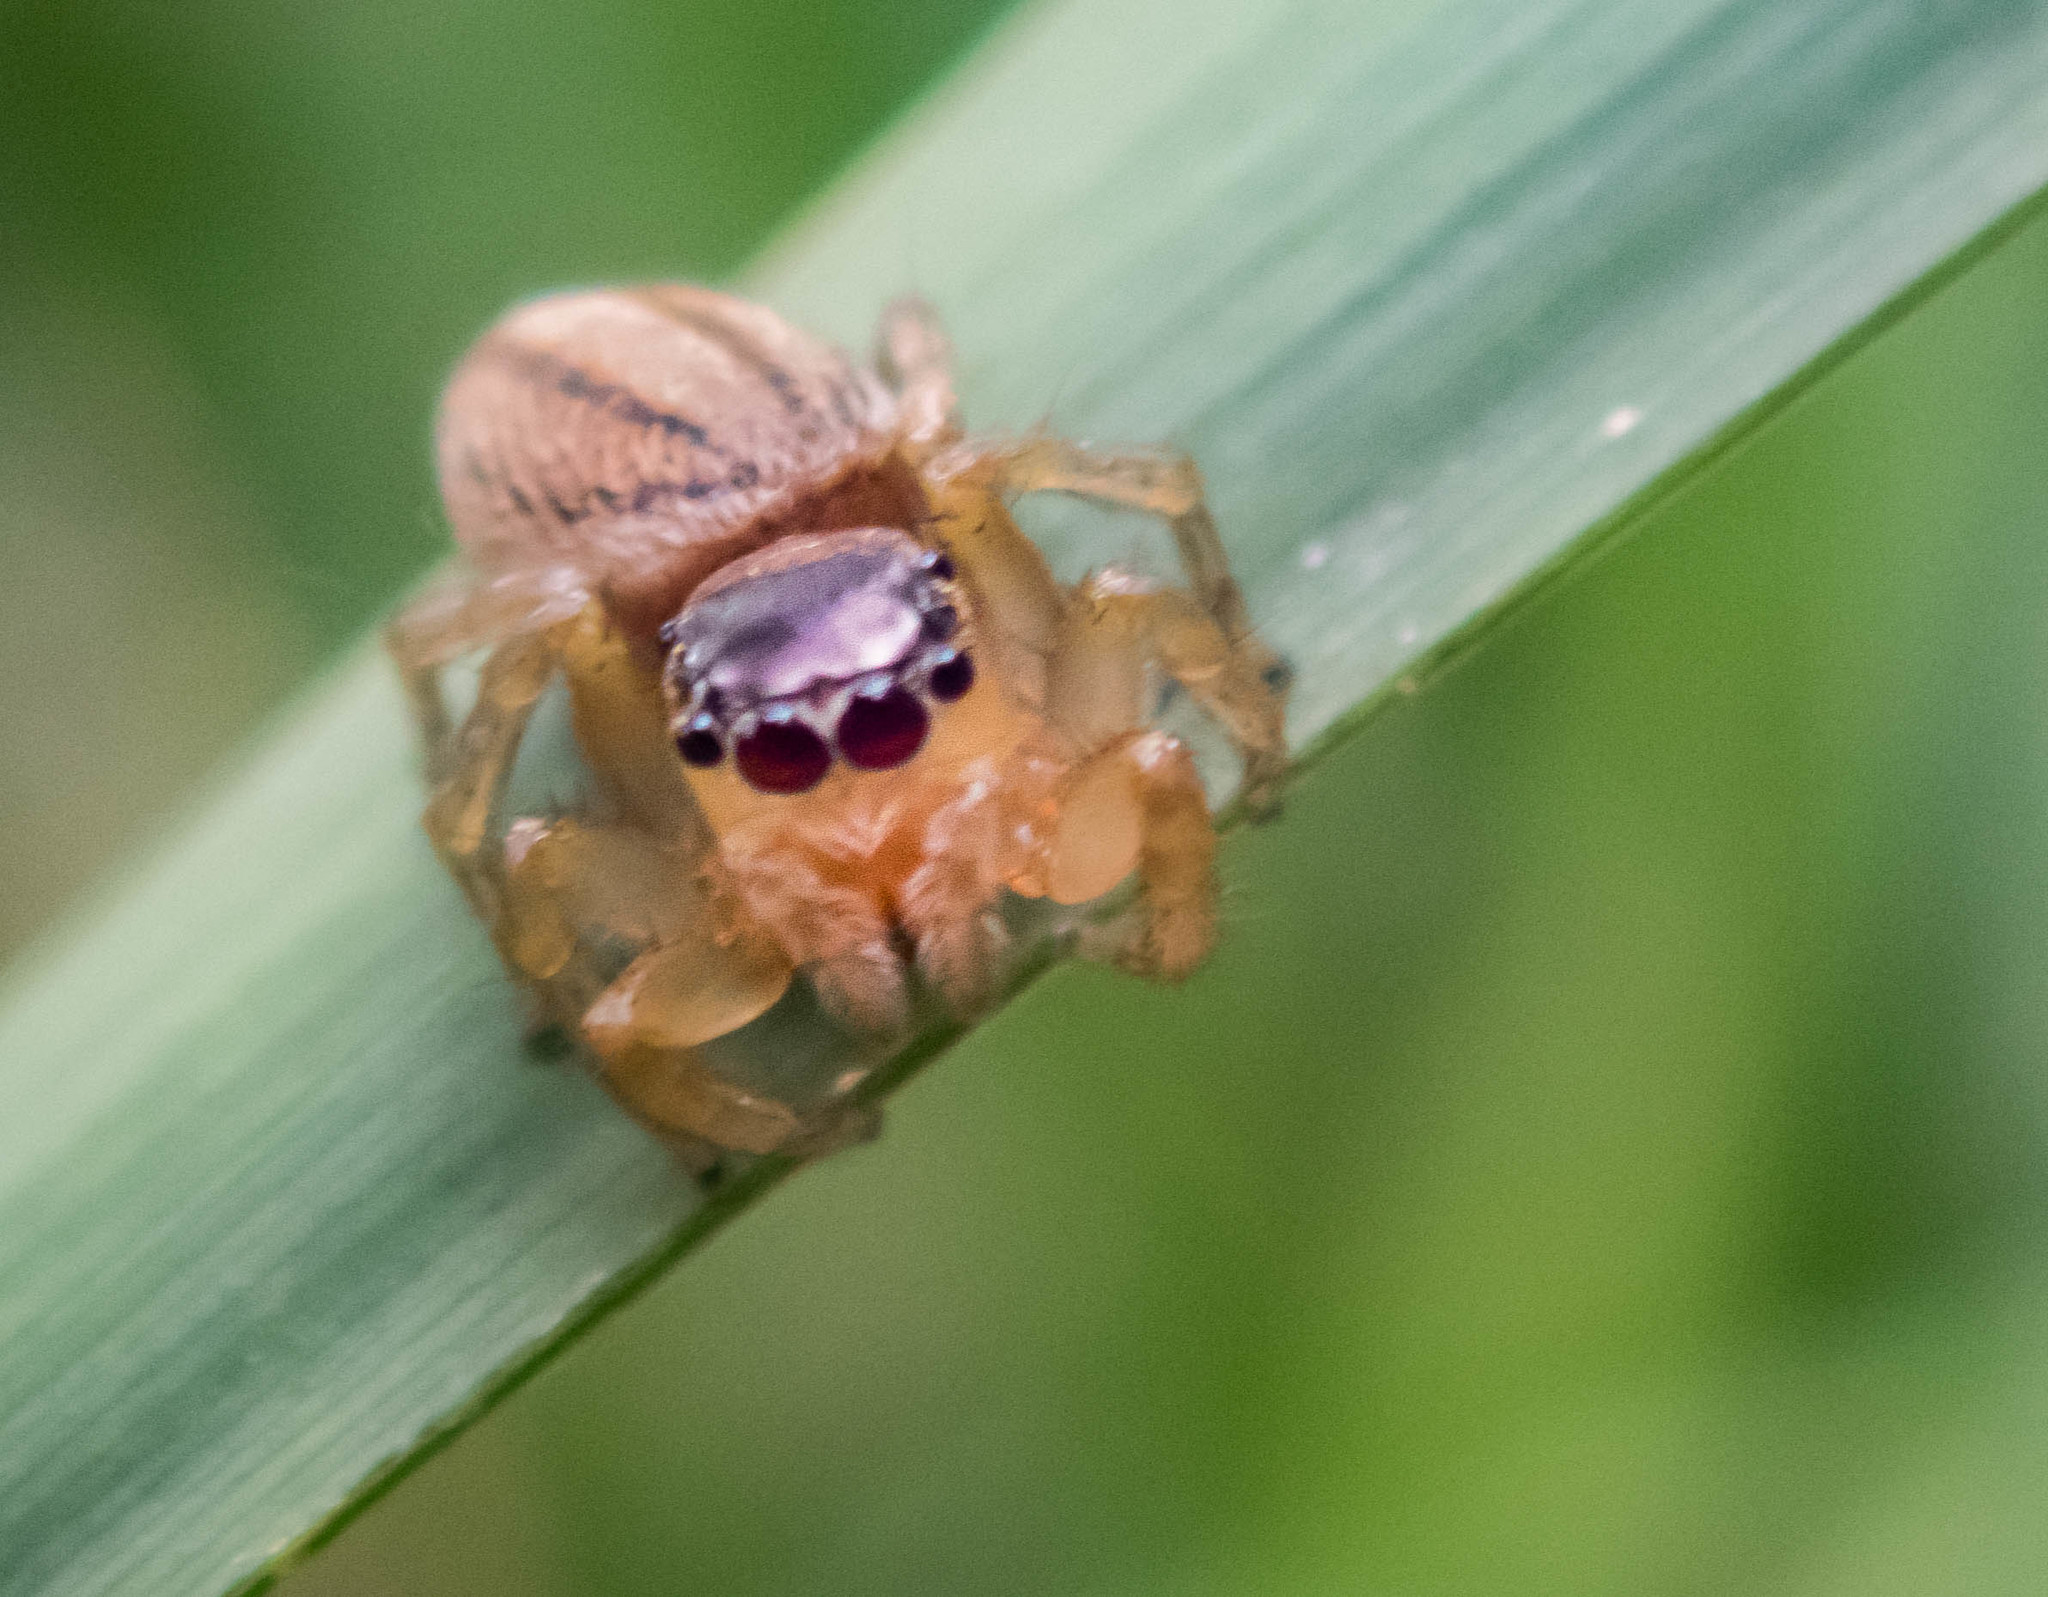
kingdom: Animalia
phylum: Arthropoda
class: Arachnida
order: Araneae
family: Salticidae
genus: Maratus
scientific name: Maratus scutulatus
